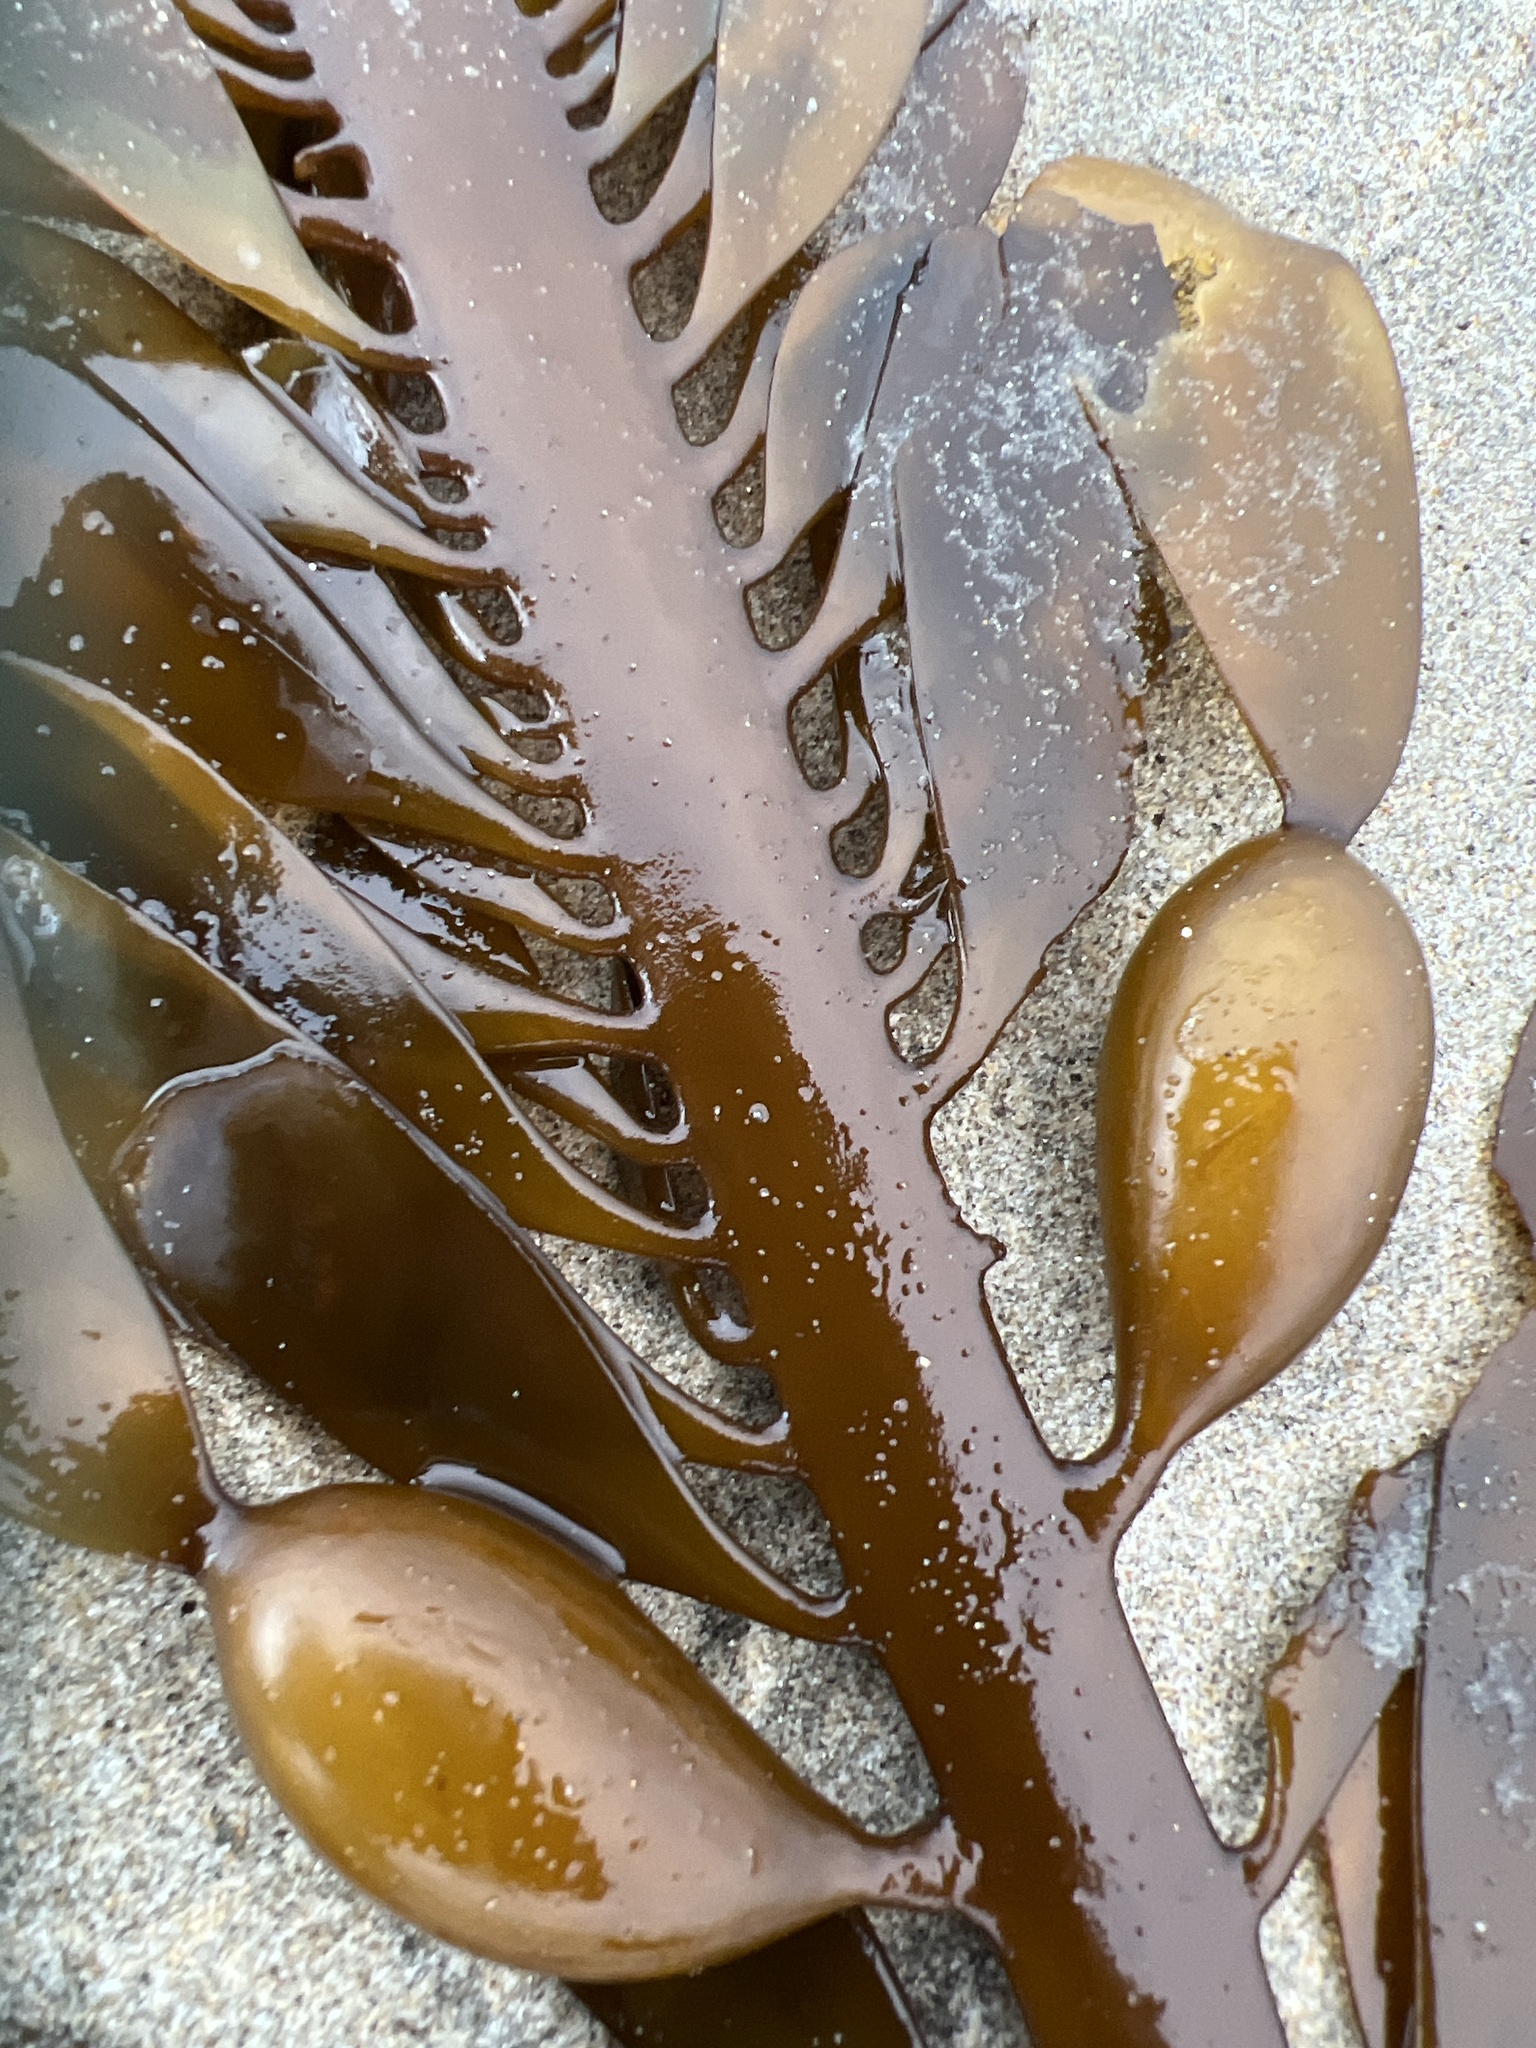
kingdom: Chromista
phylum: Ochrophyta
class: Phaeophyceae
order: Laminariales
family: Lessoniaceae
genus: Egregia
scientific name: Egregia menziesii
